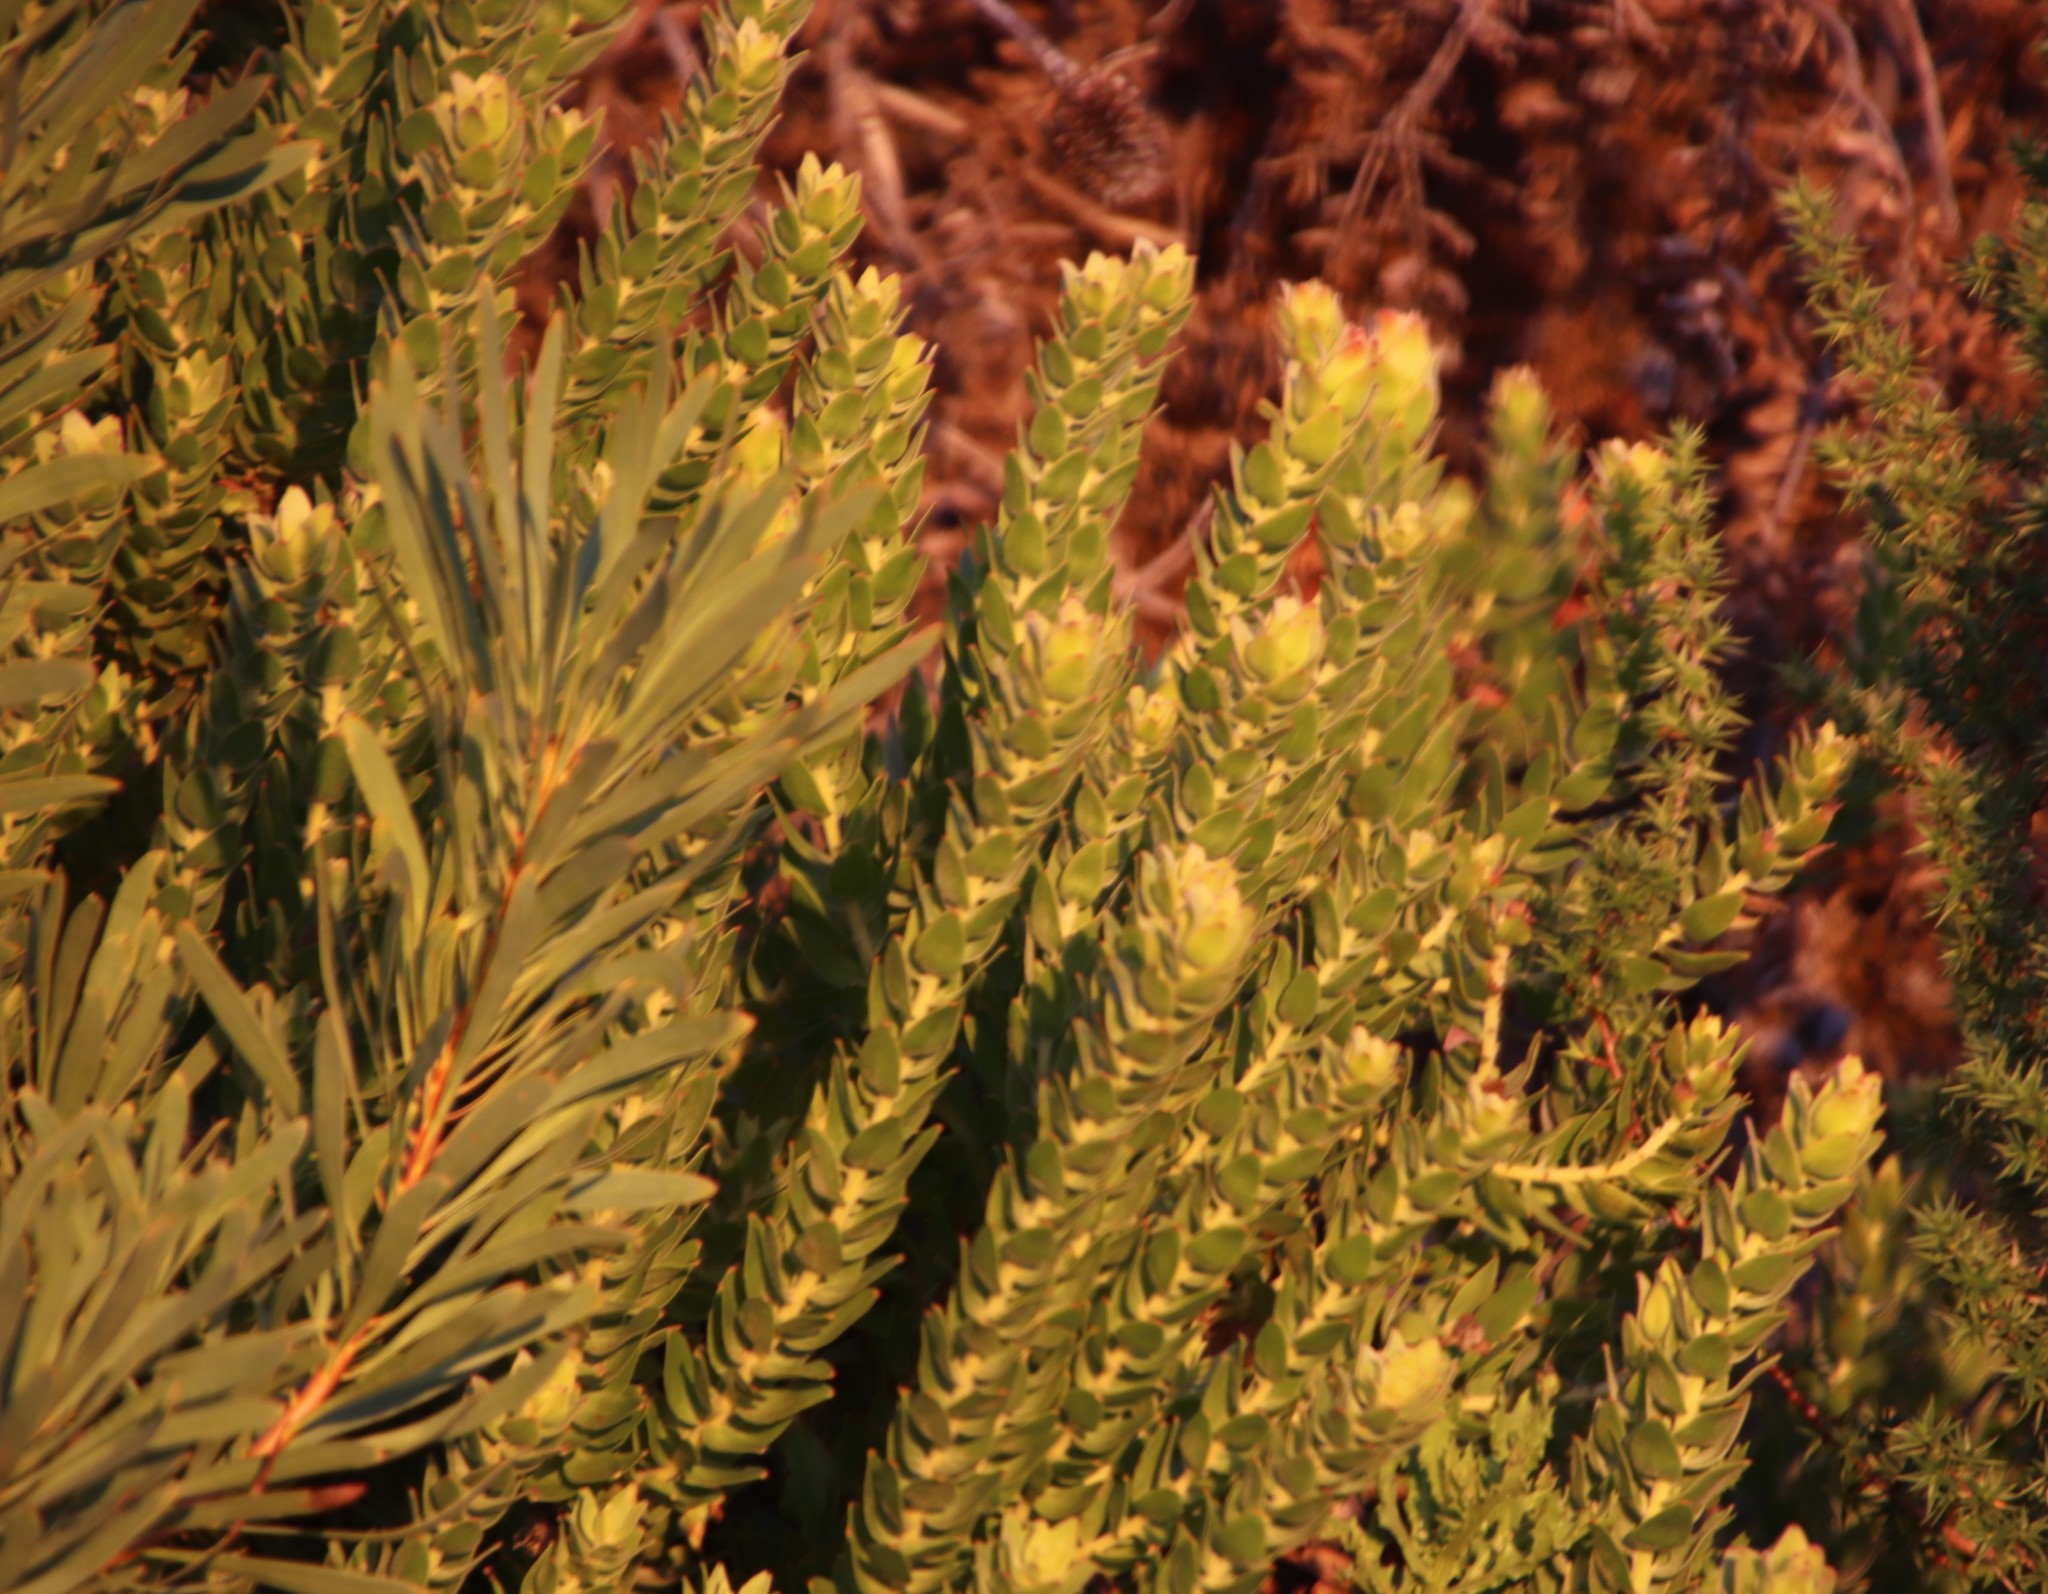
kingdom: Plantae
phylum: Tracheophyta
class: Magnoliopsida
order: Proteales
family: Proteaceae
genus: Leucospermum
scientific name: Leucospermum bolusii
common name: Gordon's bay pincushion
